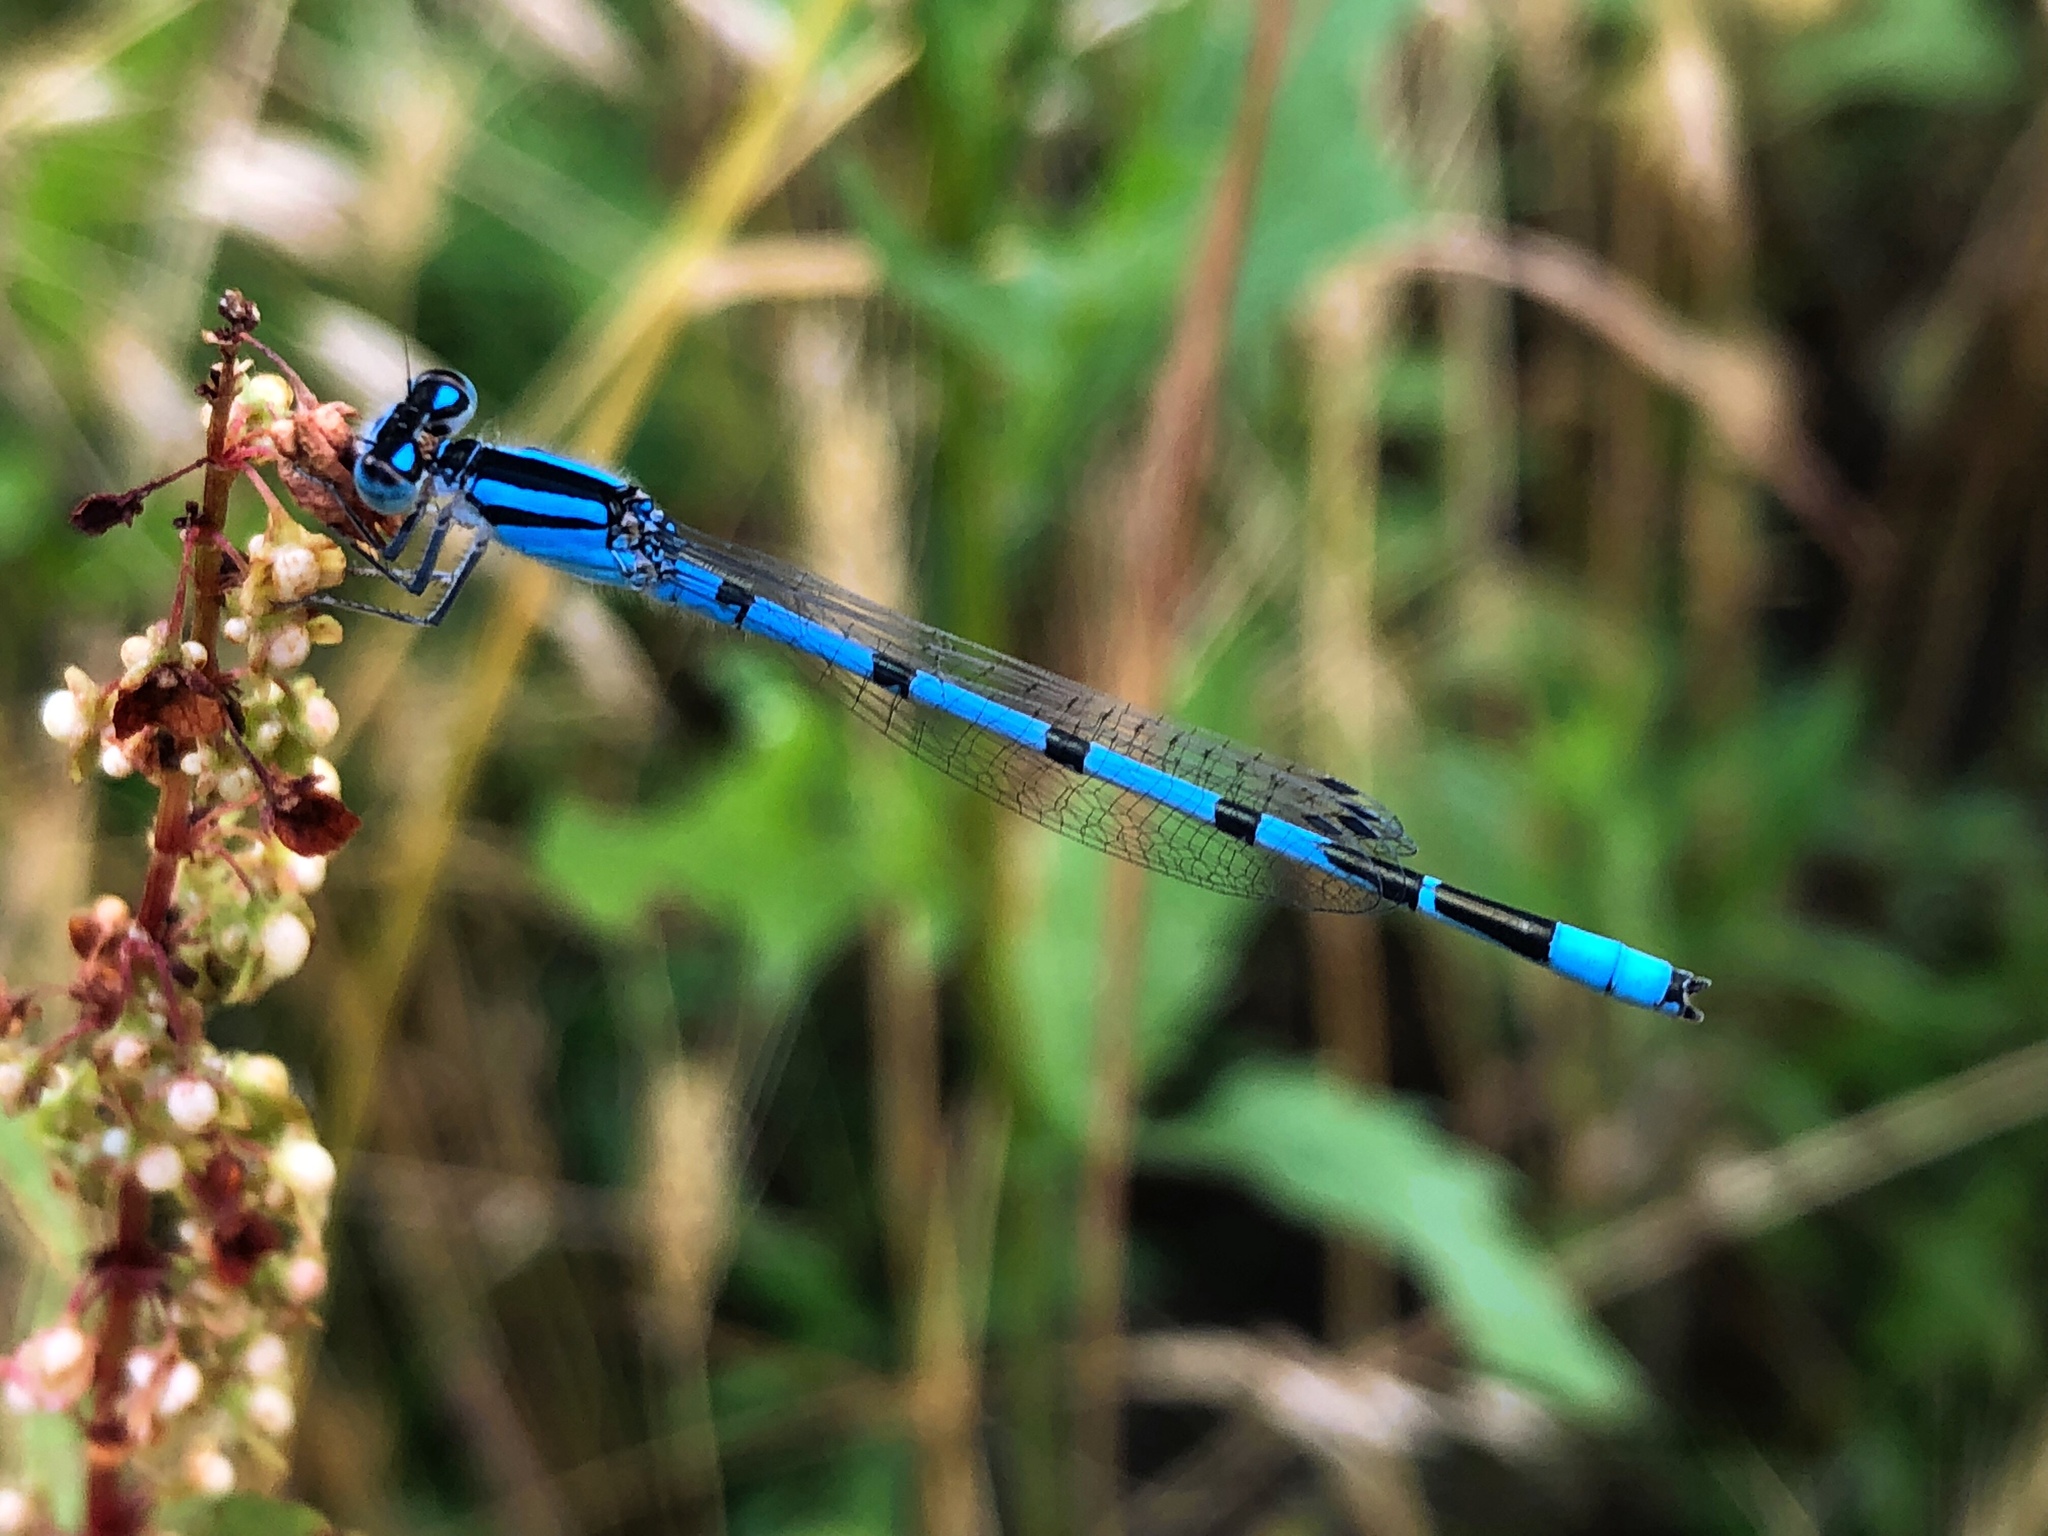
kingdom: Animalia
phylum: Arthropoda
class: Insecta
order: Odonata
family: Coenagrionidae
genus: Enallagma
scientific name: Enallagma civile
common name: Damselfly
